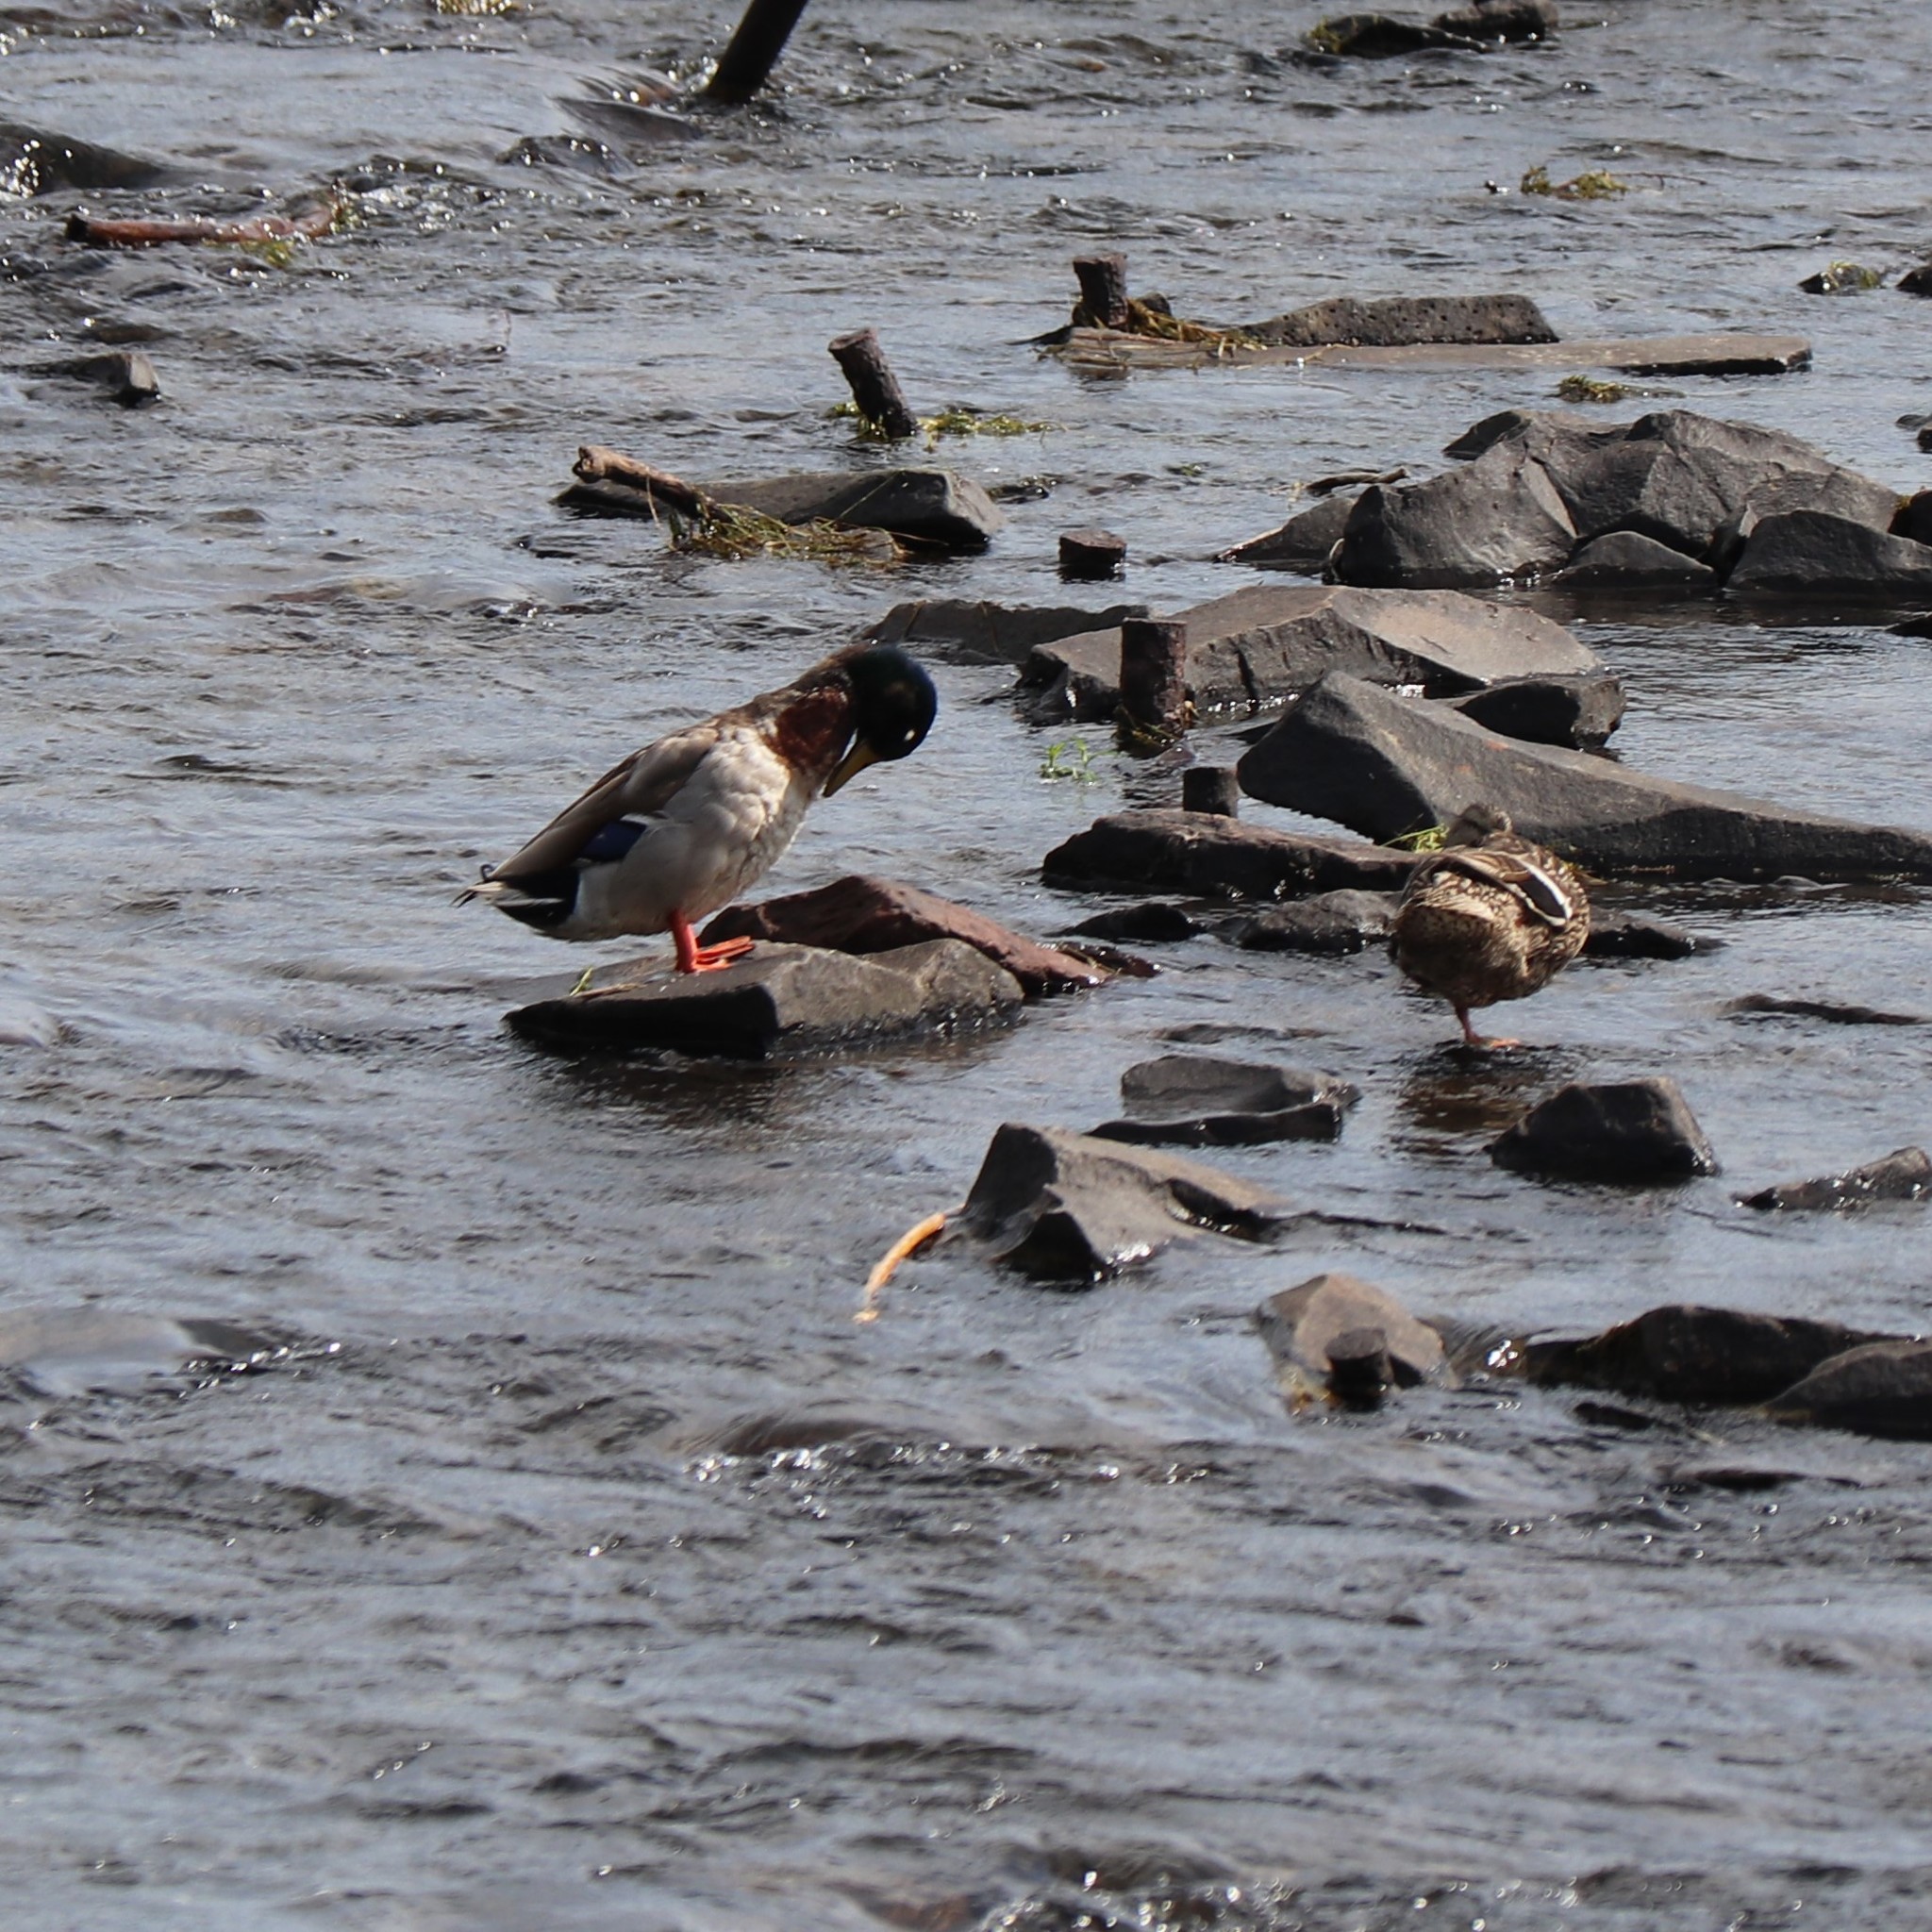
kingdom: Animalia
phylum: Chordata
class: Aves
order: Anseriformes
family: Anatidae
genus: Anas
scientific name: Anas platyrhynchos
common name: Mallard
